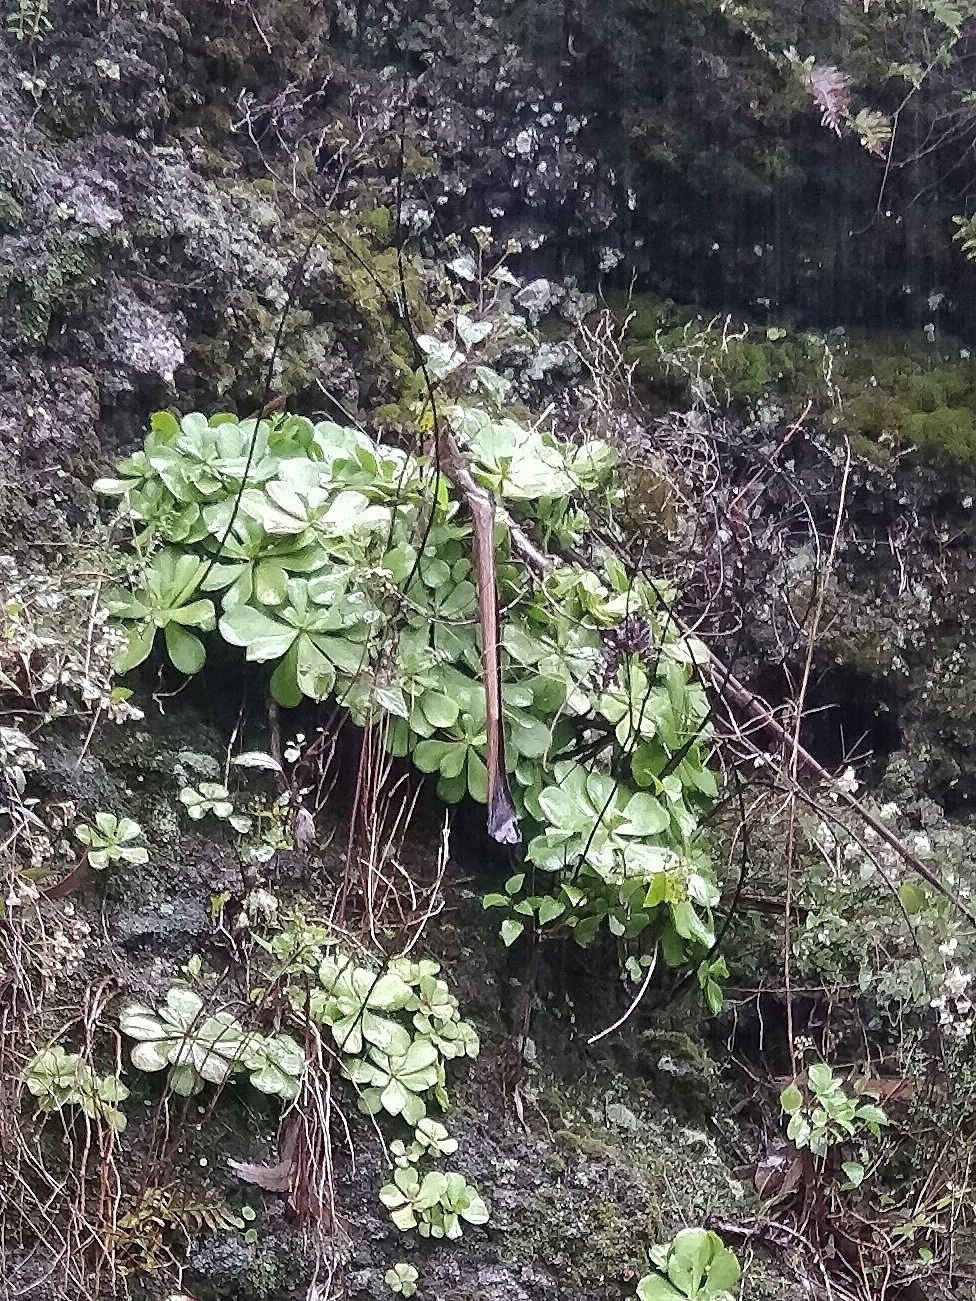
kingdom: Plantae
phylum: Tracheophyta
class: Magnoliopsida
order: Saxifragales
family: Crassulaceae
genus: Aeonium
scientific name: Aeonium glutinosum
